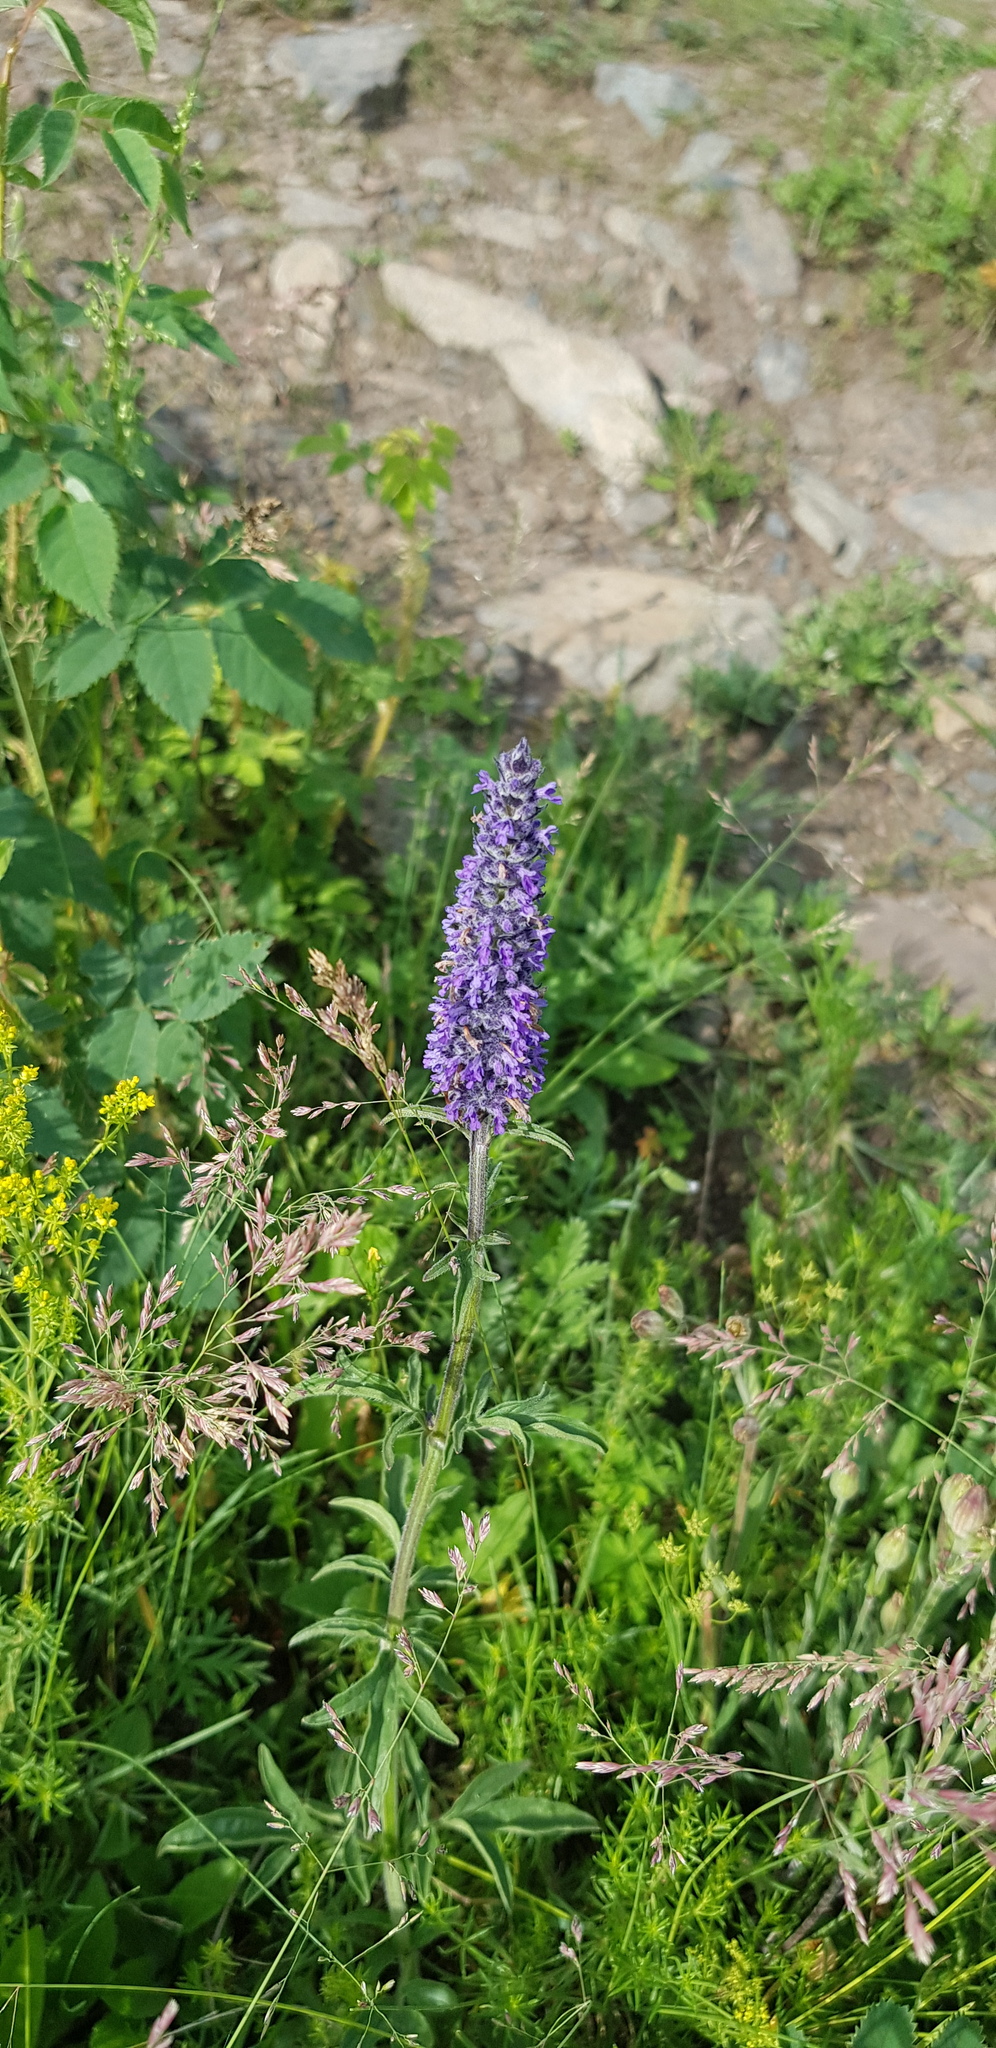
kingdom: Plantae
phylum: Tracheophyta
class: Magnoliopsida
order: Lamiales
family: Lamiaceae
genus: Nepeta
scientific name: Nepeta multifida
